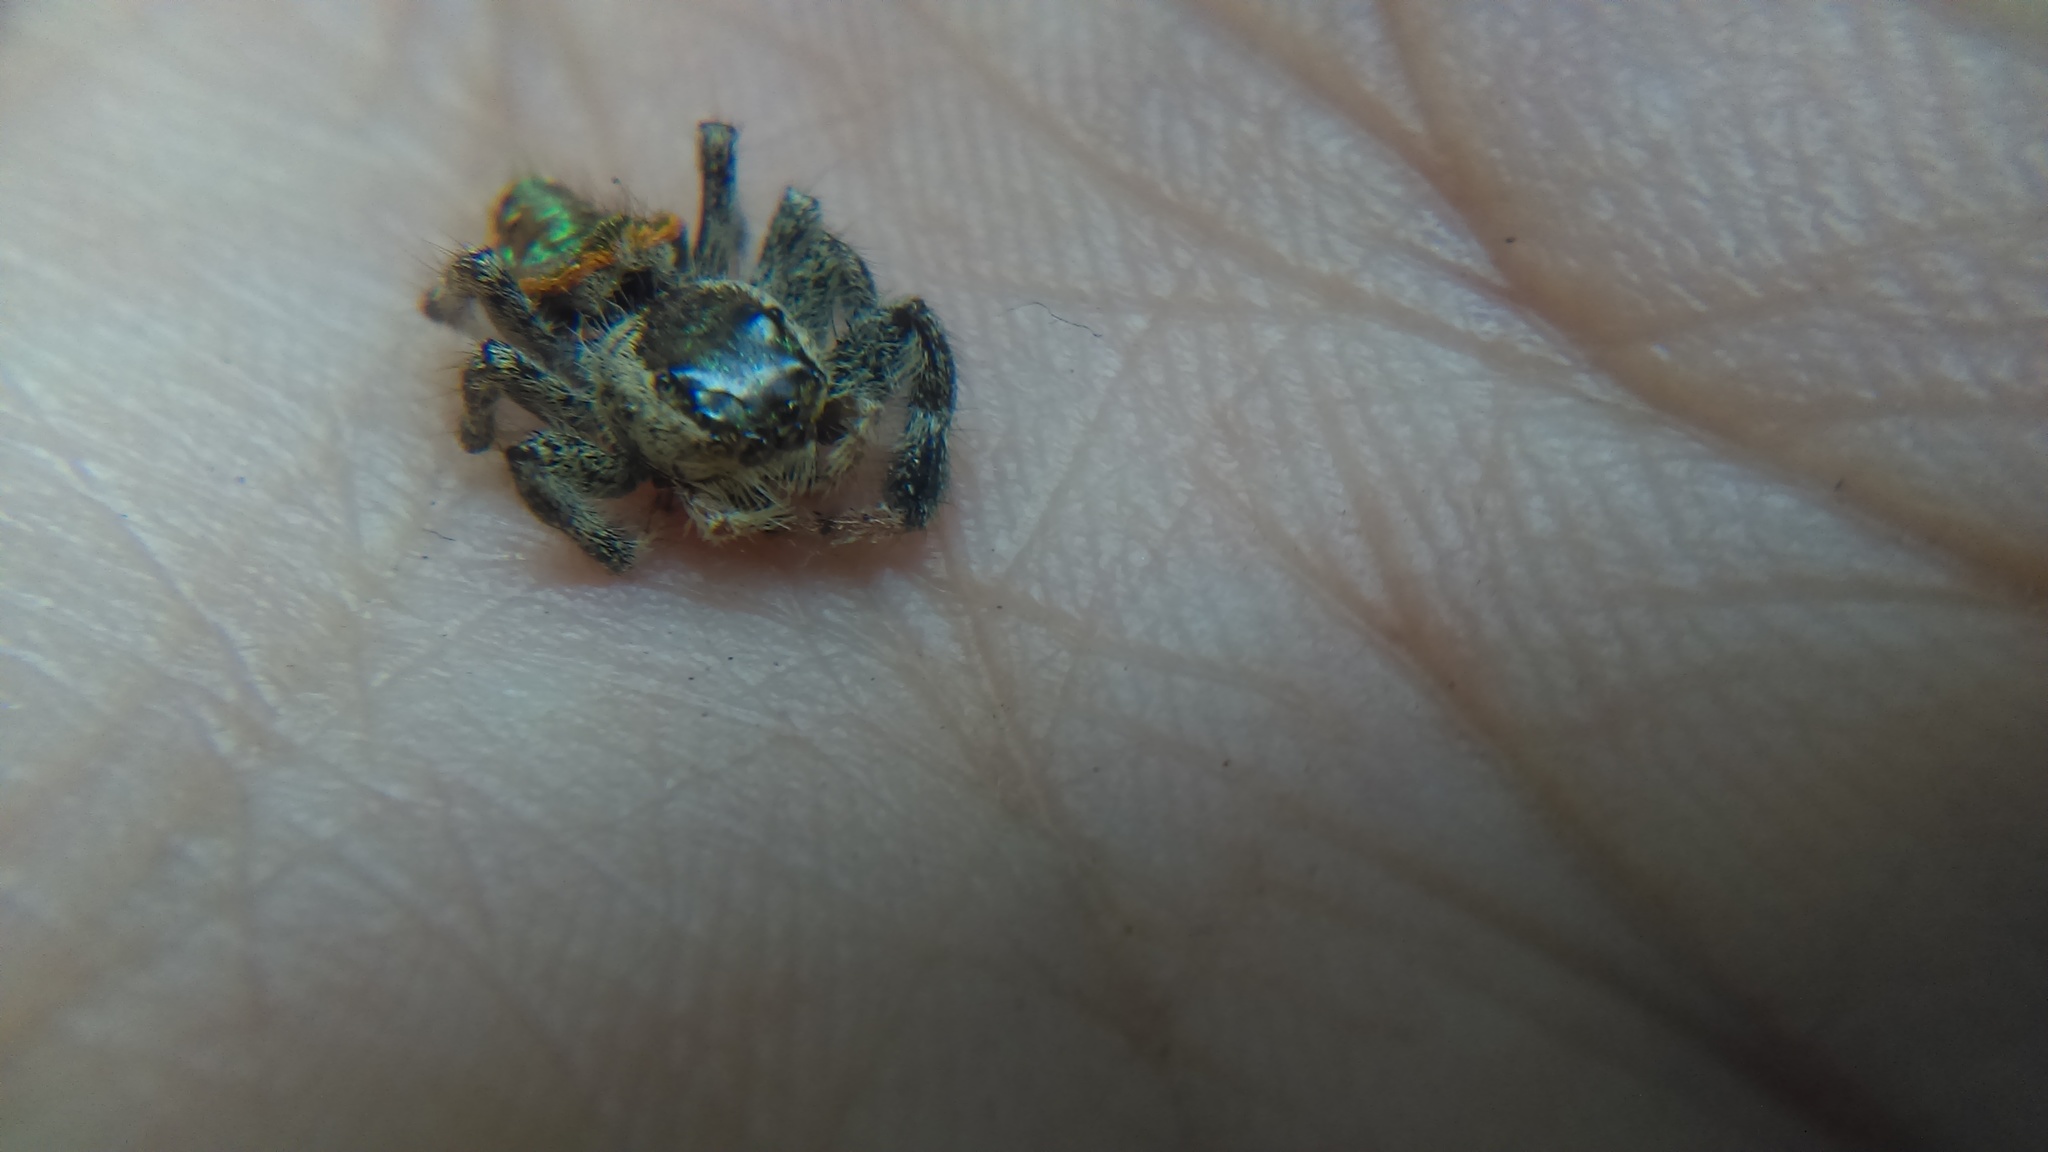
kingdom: Animalia
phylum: Arthropoda
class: Arachnida
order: Araneae
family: Salticidae
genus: Paraphidippus
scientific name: Paraphidippus aurantius
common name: Jumping spiders
